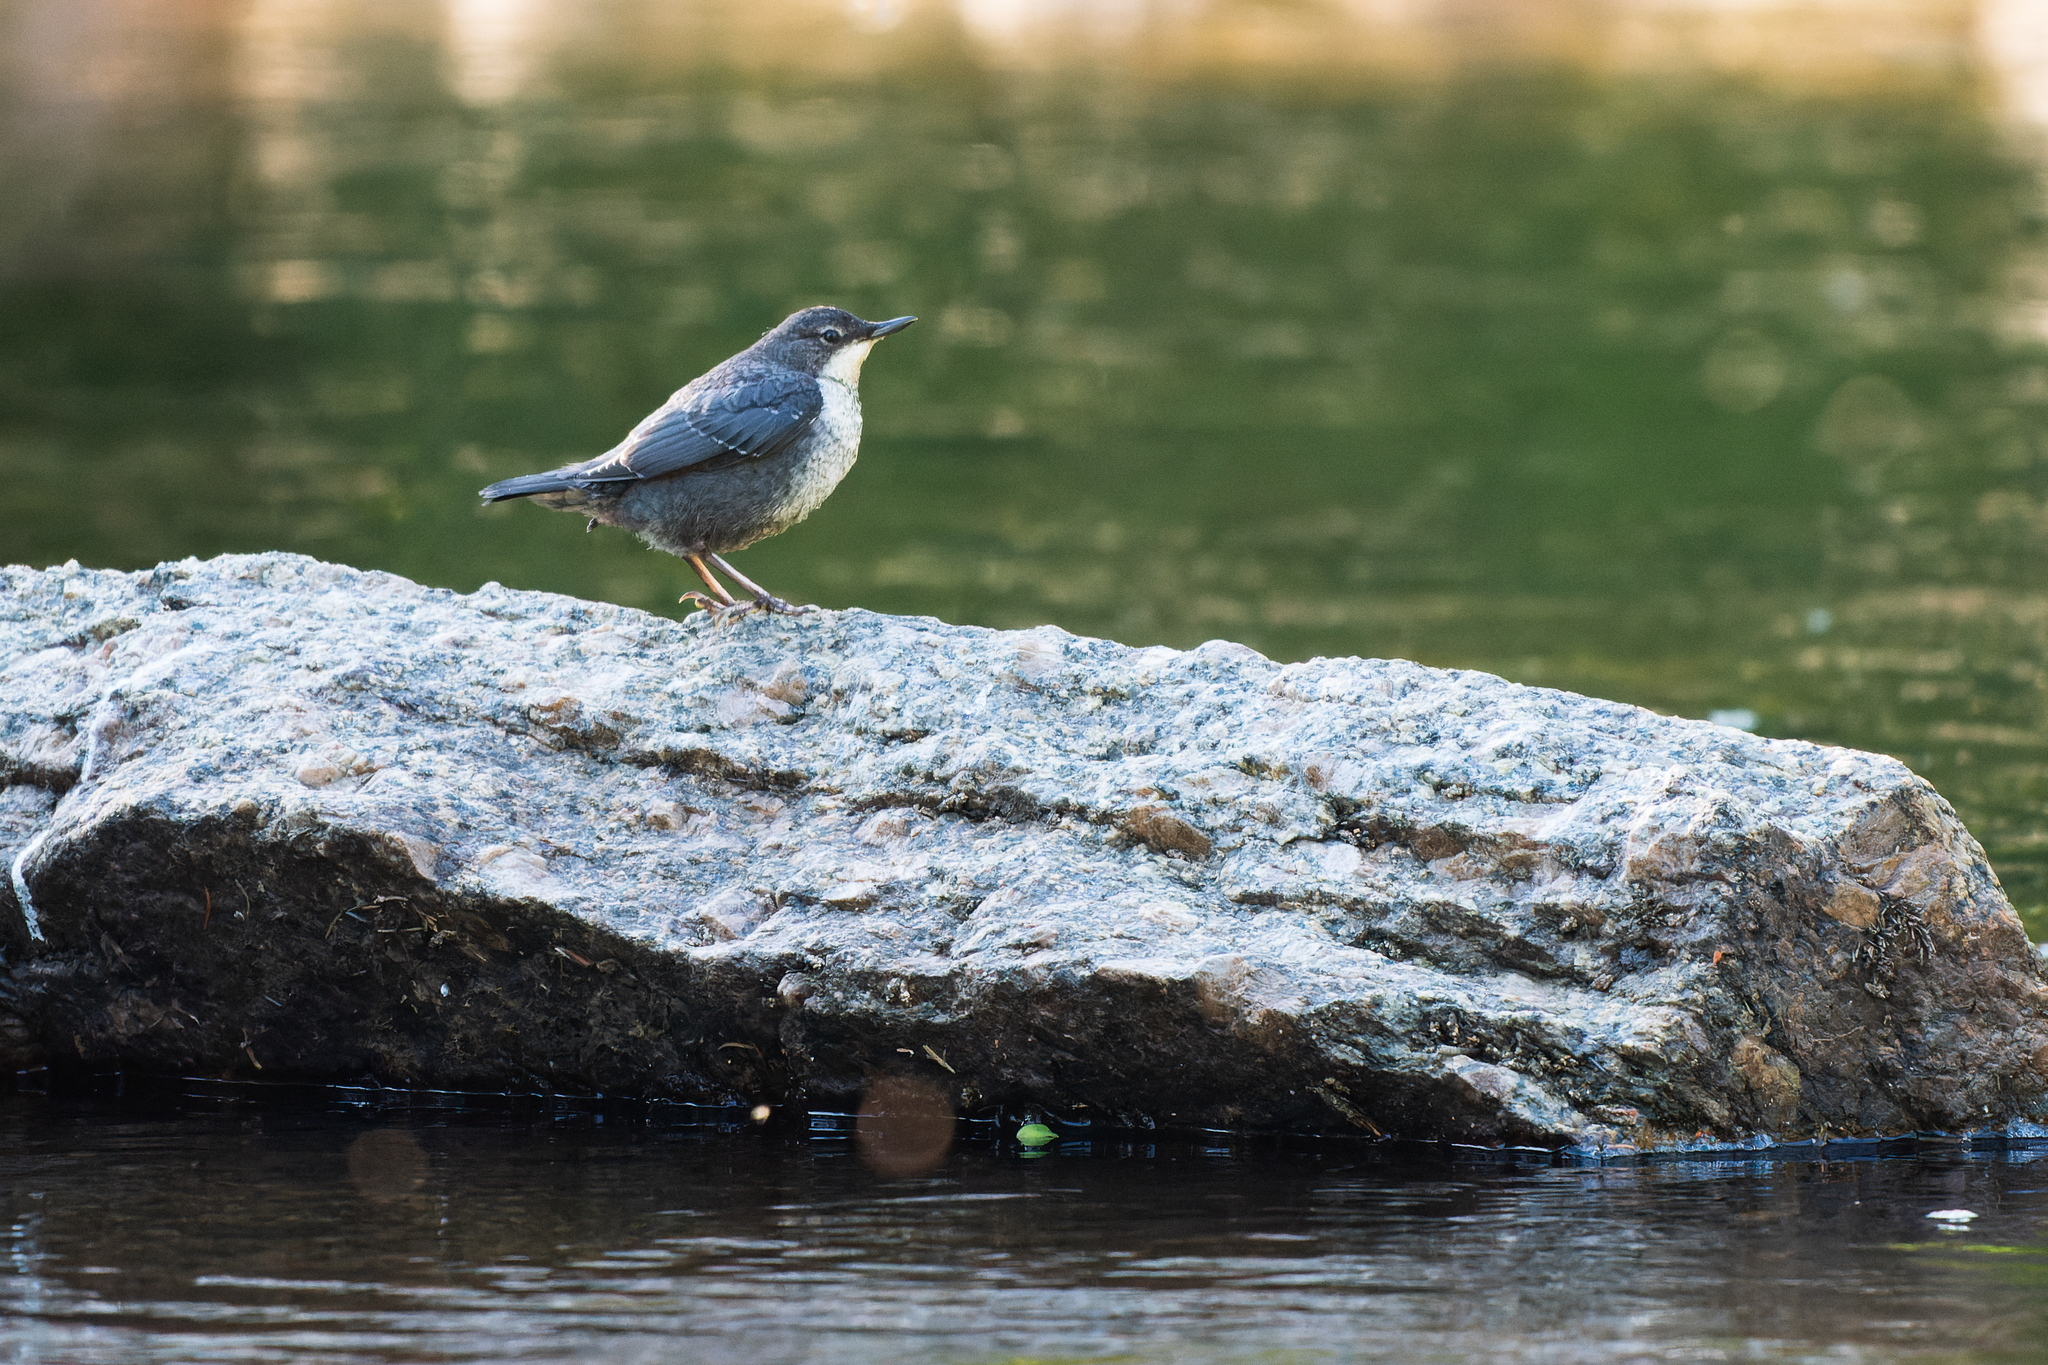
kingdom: Animalia
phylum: Chordata
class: Aves
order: Passeriformes
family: Cinclidae
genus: Cinclus
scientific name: Cinclus cinclus
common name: White-throated dipper
